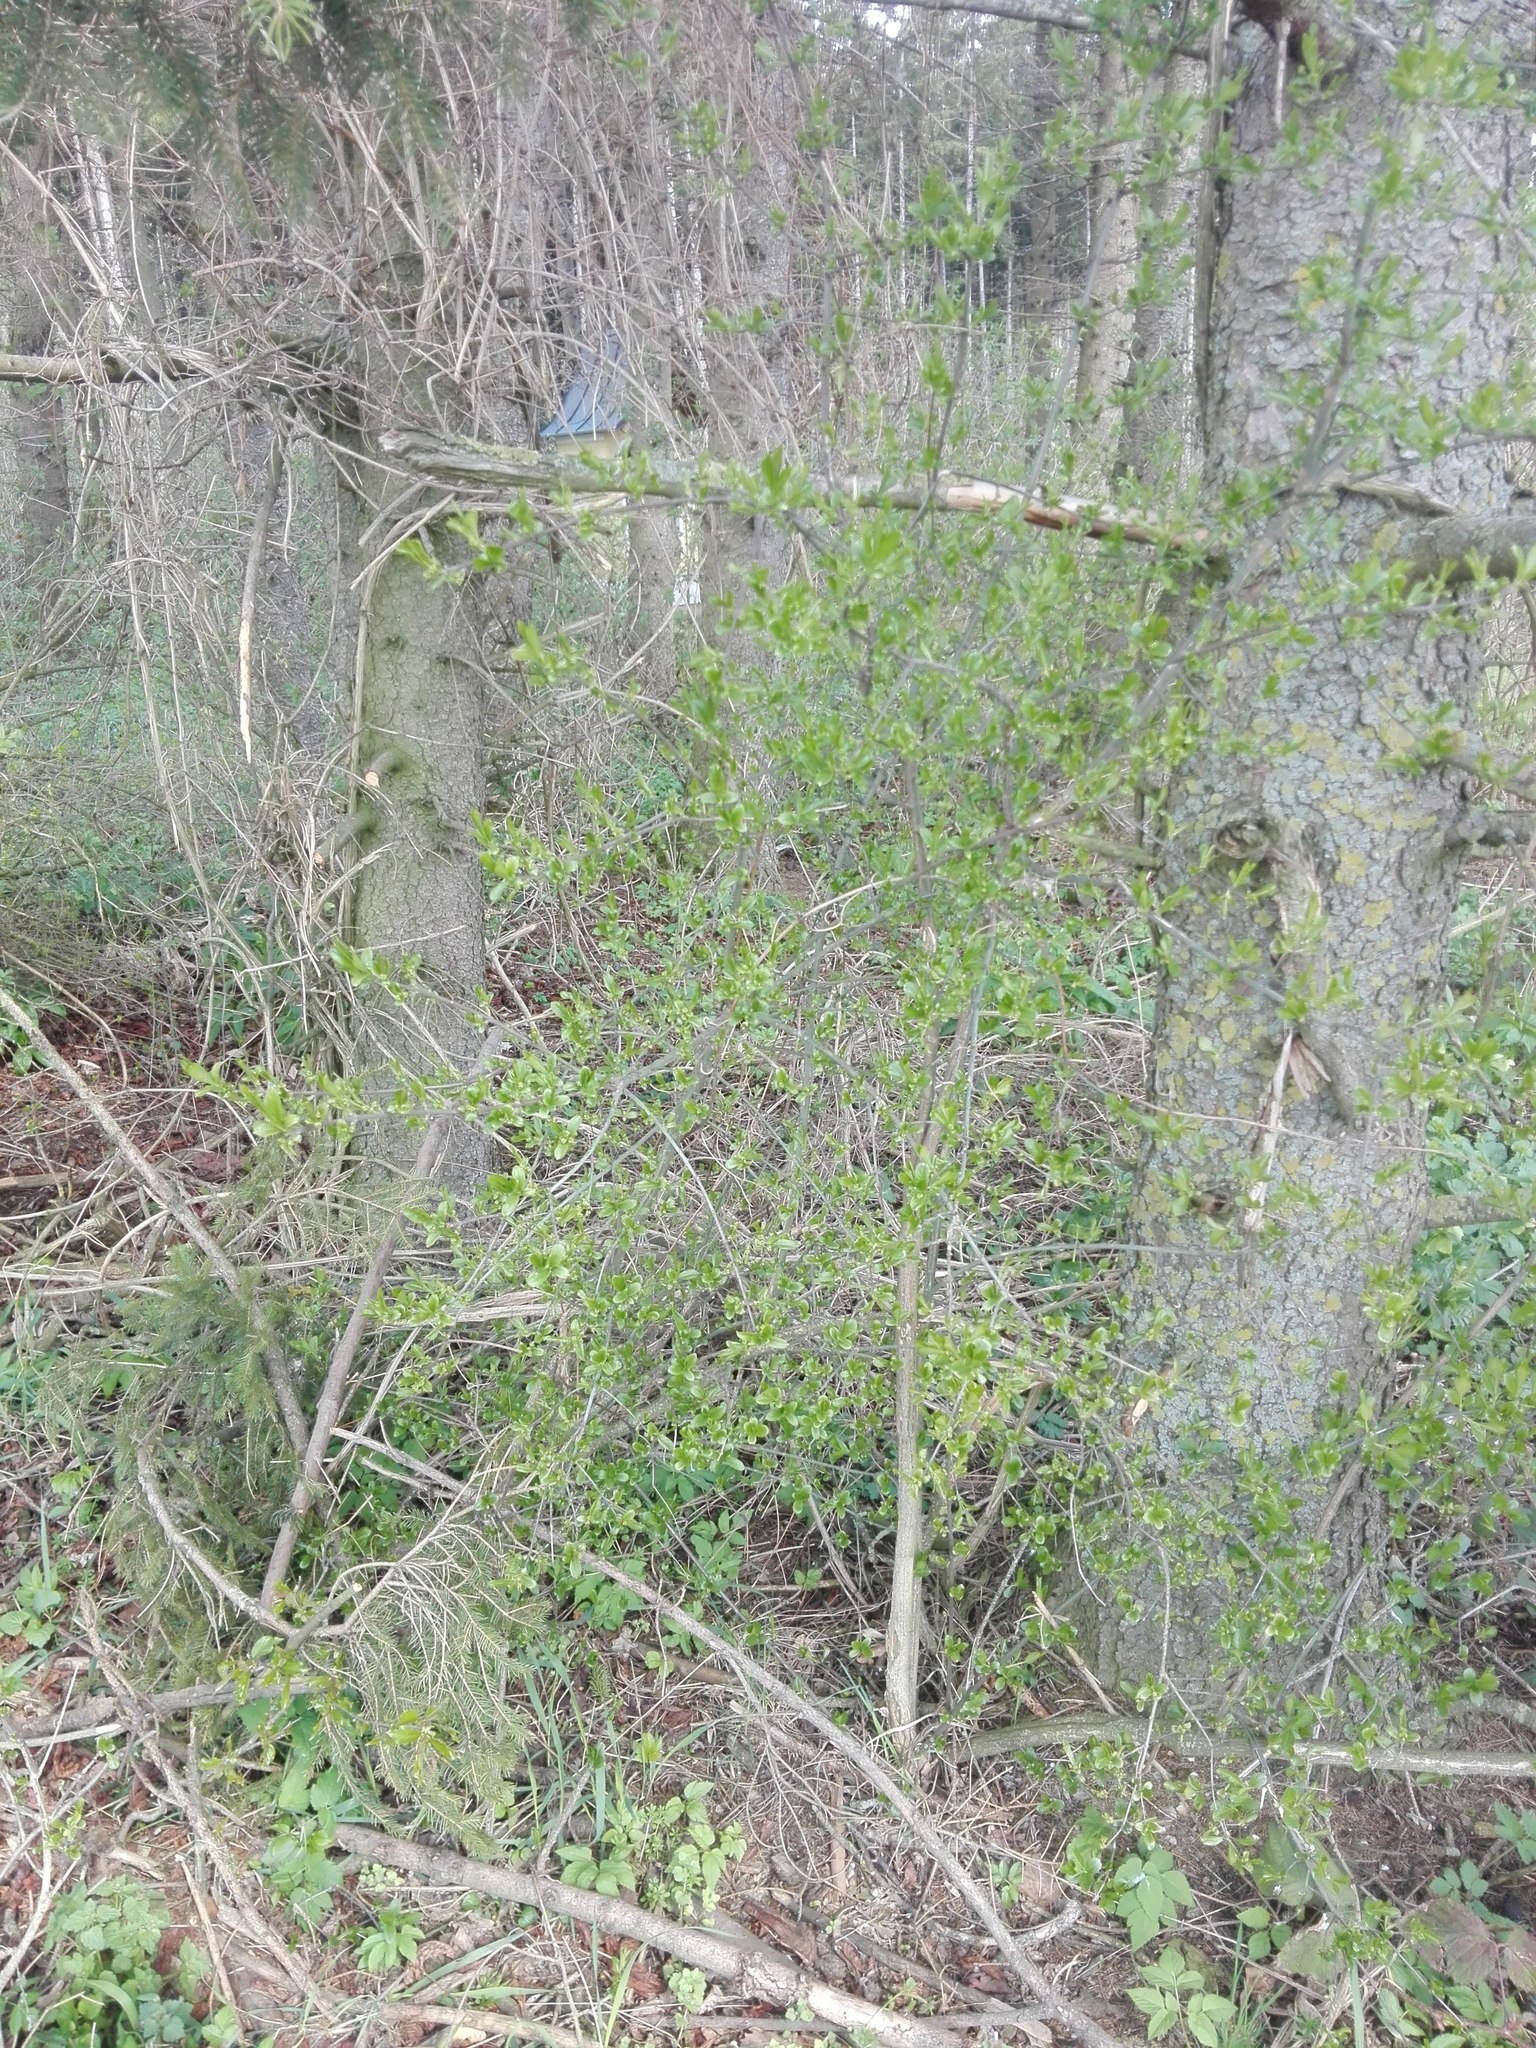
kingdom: Plantae
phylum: Tracheophyta
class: Magnoliopsida
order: Celastrales
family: Celastraceae
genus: Euonymus
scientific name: Euonymus europaeus
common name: Spindle
